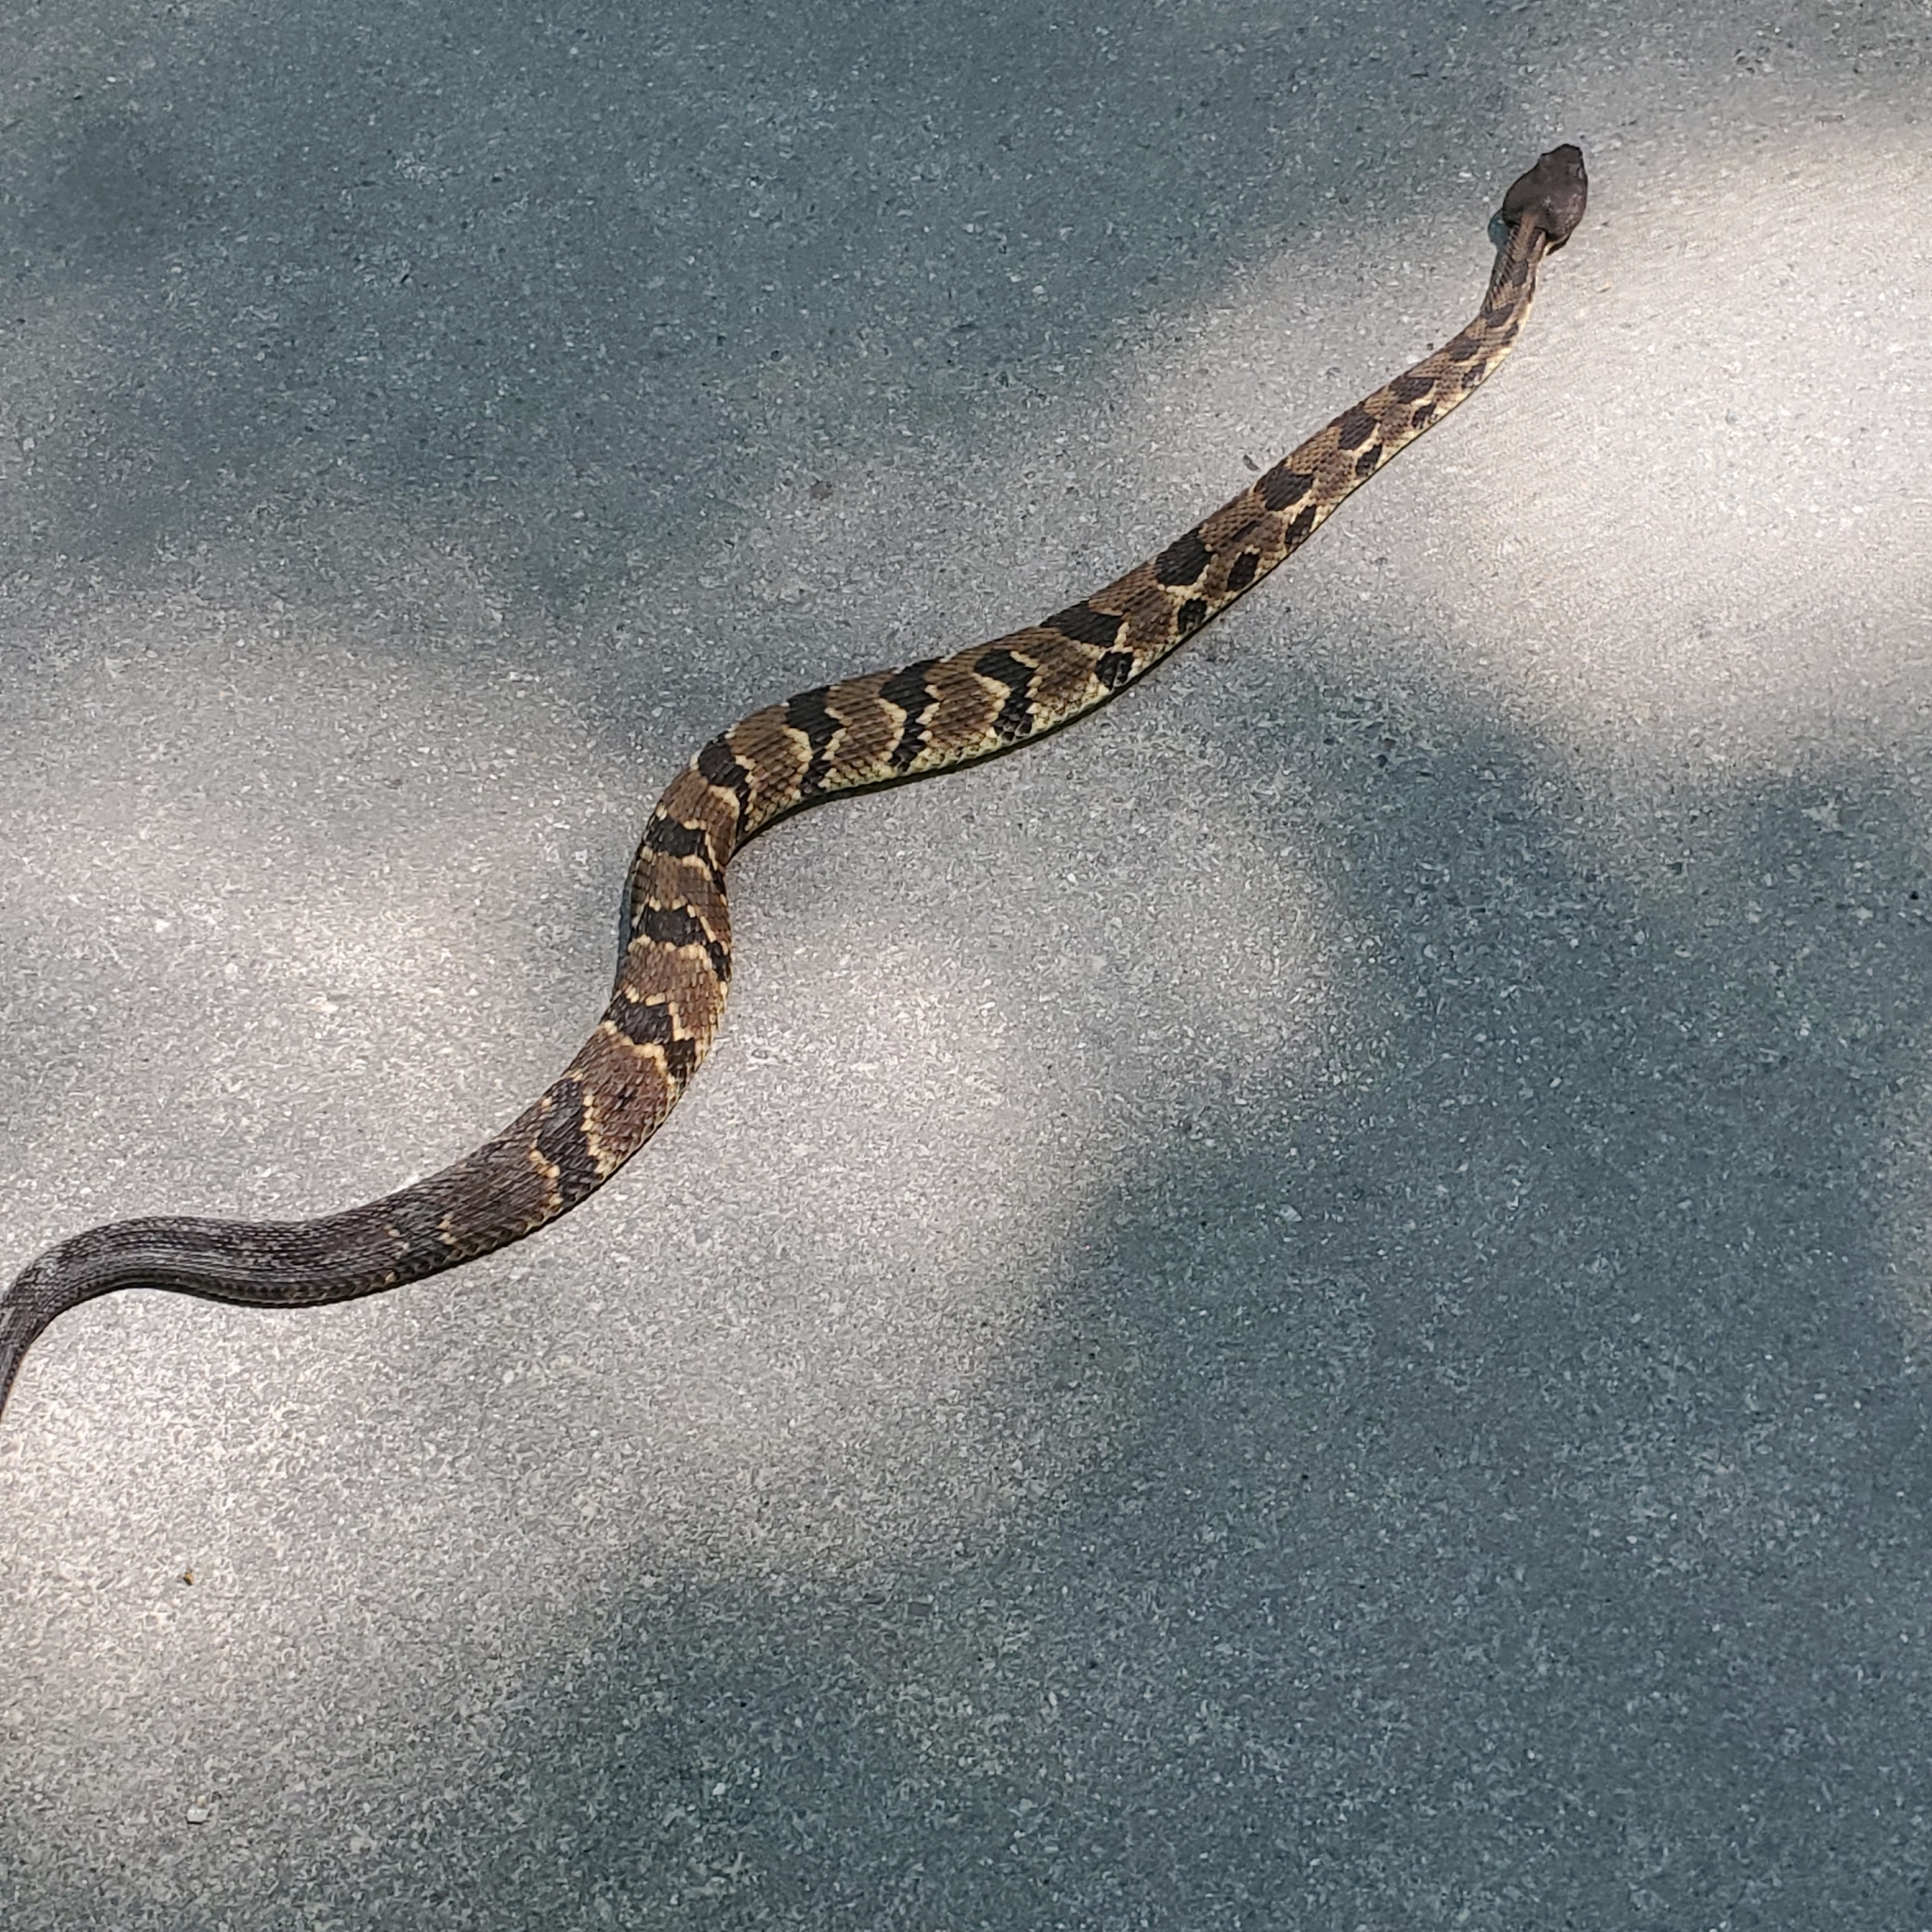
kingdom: Animalia
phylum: Chordata
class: Squamata
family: Viperidae
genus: Crotalus
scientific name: Crotalus horridus
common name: Timber rattlesnake
